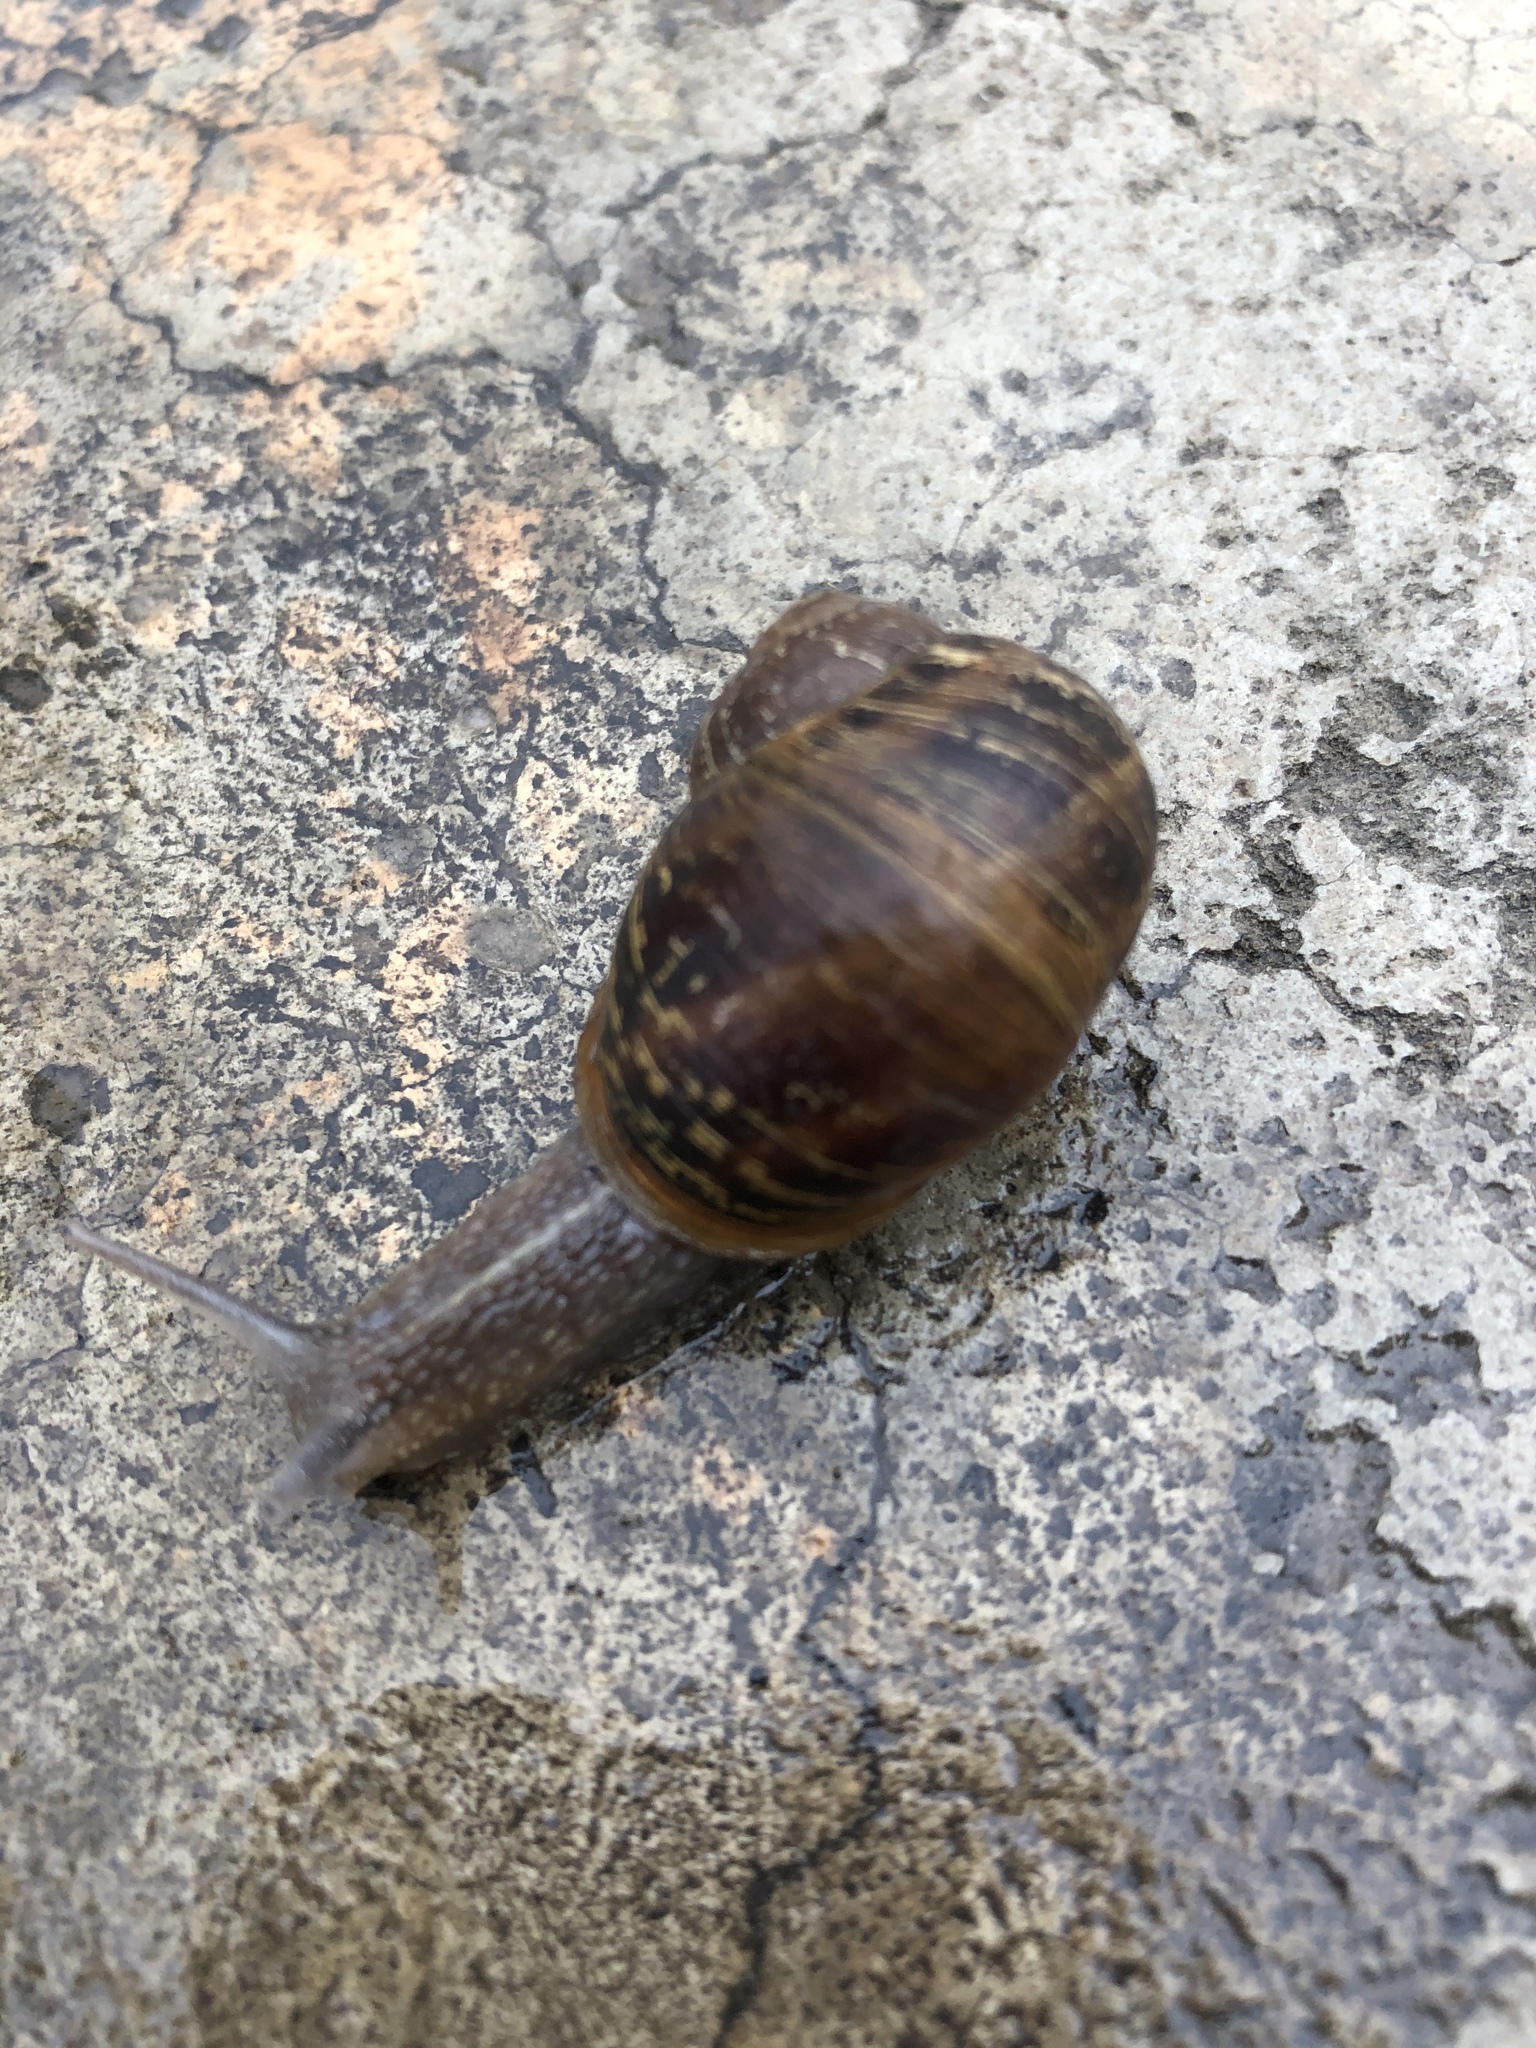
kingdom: Animalia
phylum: Mollusca
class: Gastropoda
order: Stylommatophora
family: Helicidae
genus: Cornu
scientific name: Cornu aspersum
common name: Brown garden snail
